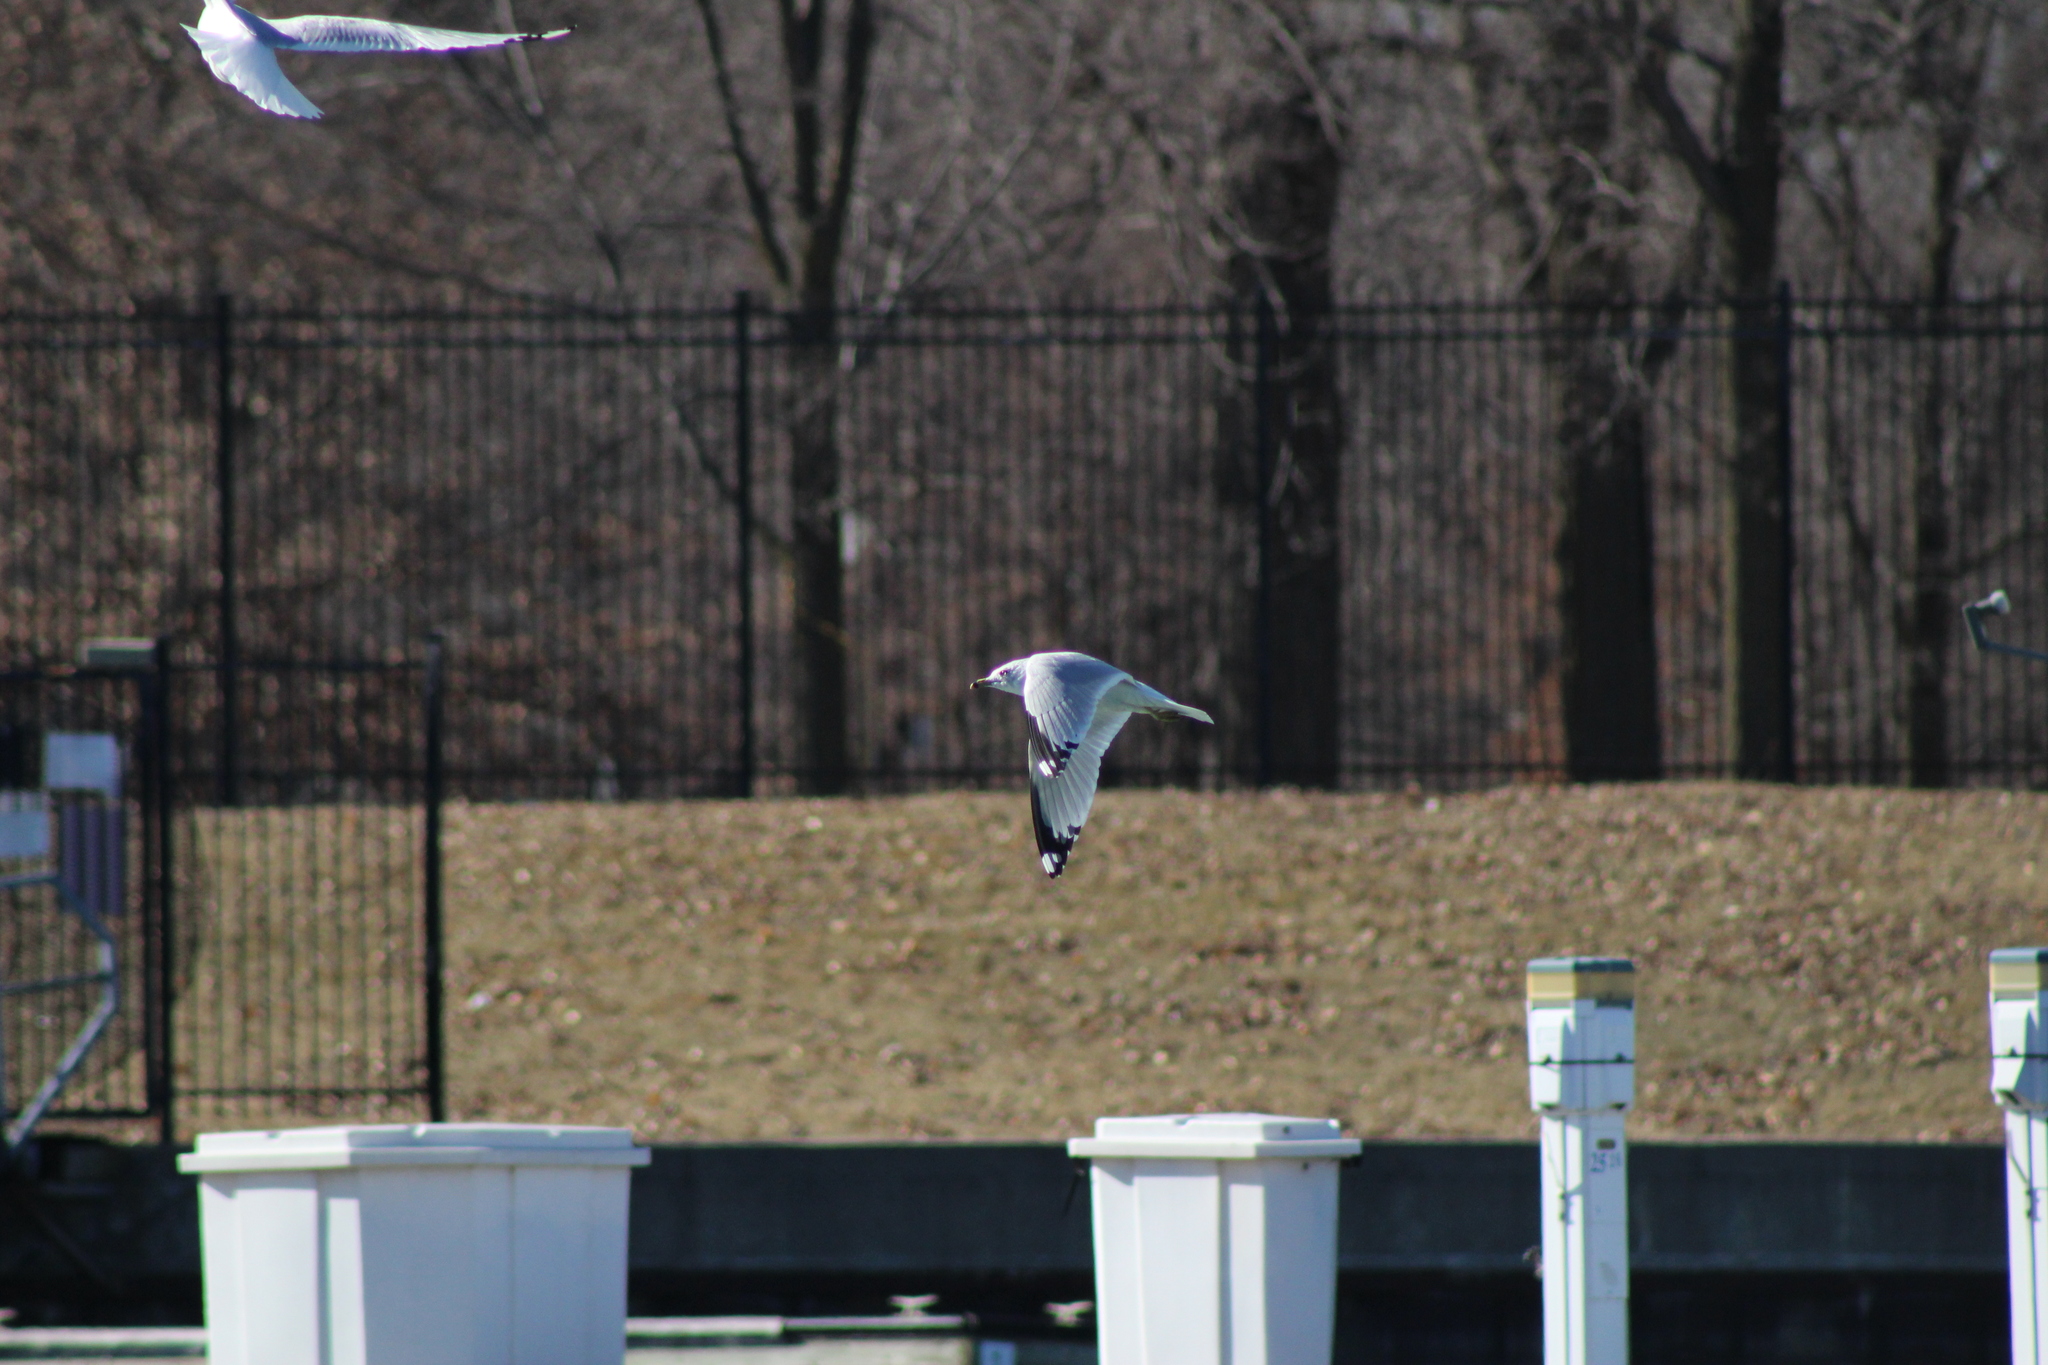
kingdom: Animalia
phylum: Chordata
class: Aves
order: Charadriiformes
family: Laridae
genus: Larus
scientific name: Larus delawarensis
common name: Ring-billed gull
